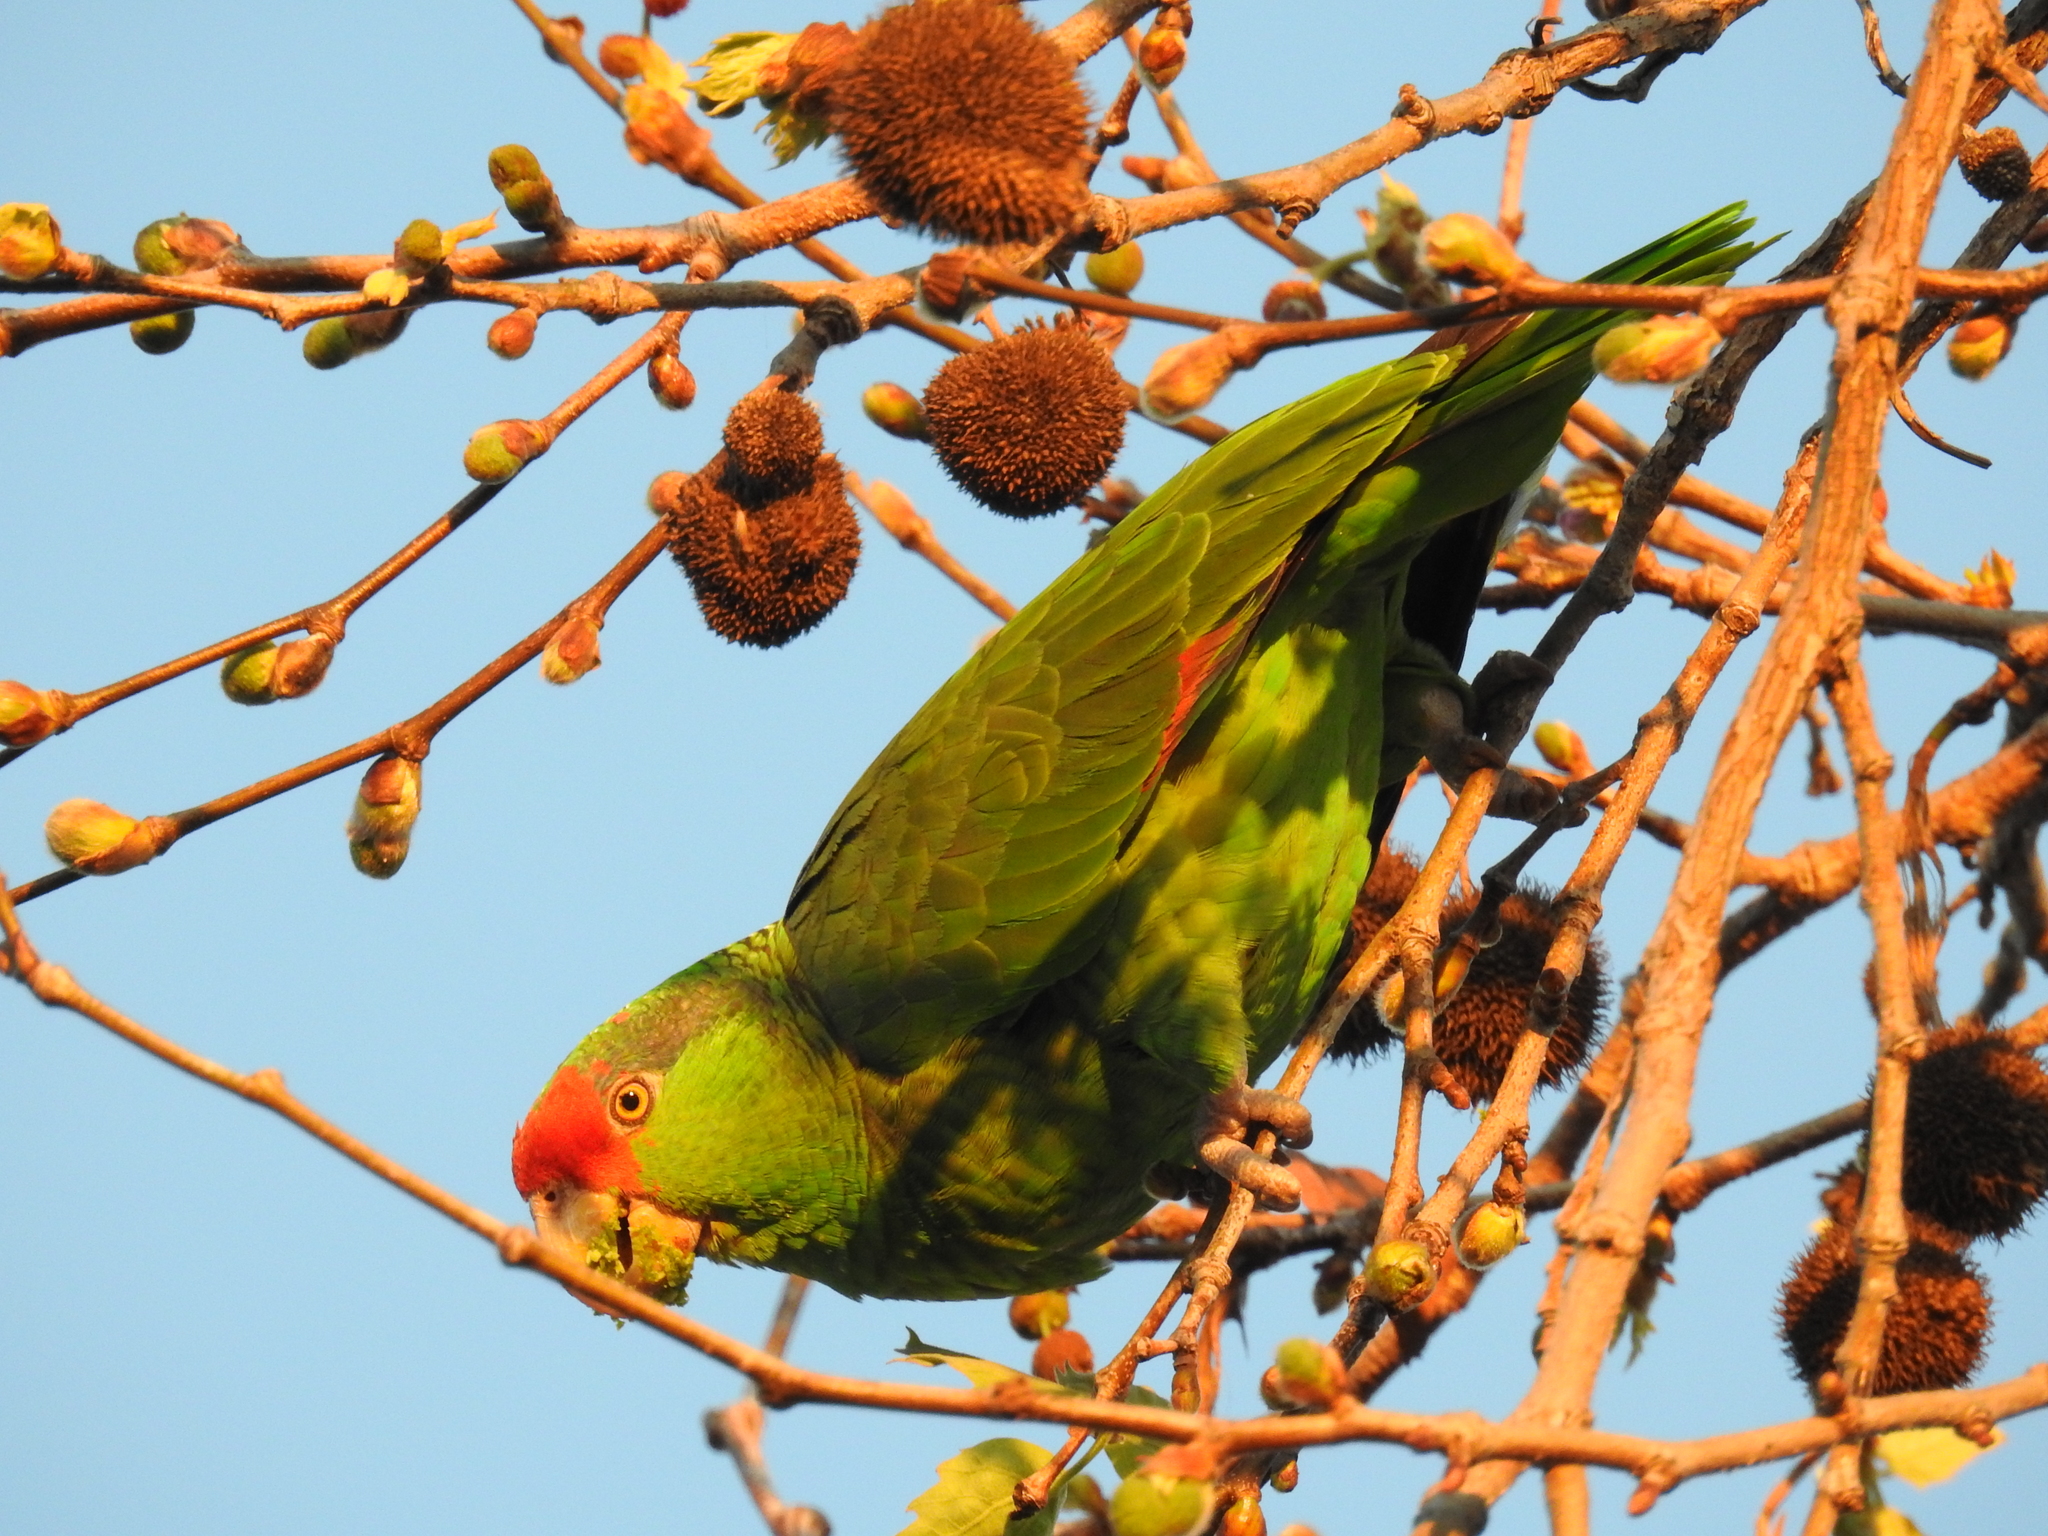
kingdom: Animalia
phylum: Chordata
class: Aves
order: Psittaciformes
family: Psittacidae
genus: Amazona
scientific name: Amazona viridigenalis
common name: Red-crowned amazon
